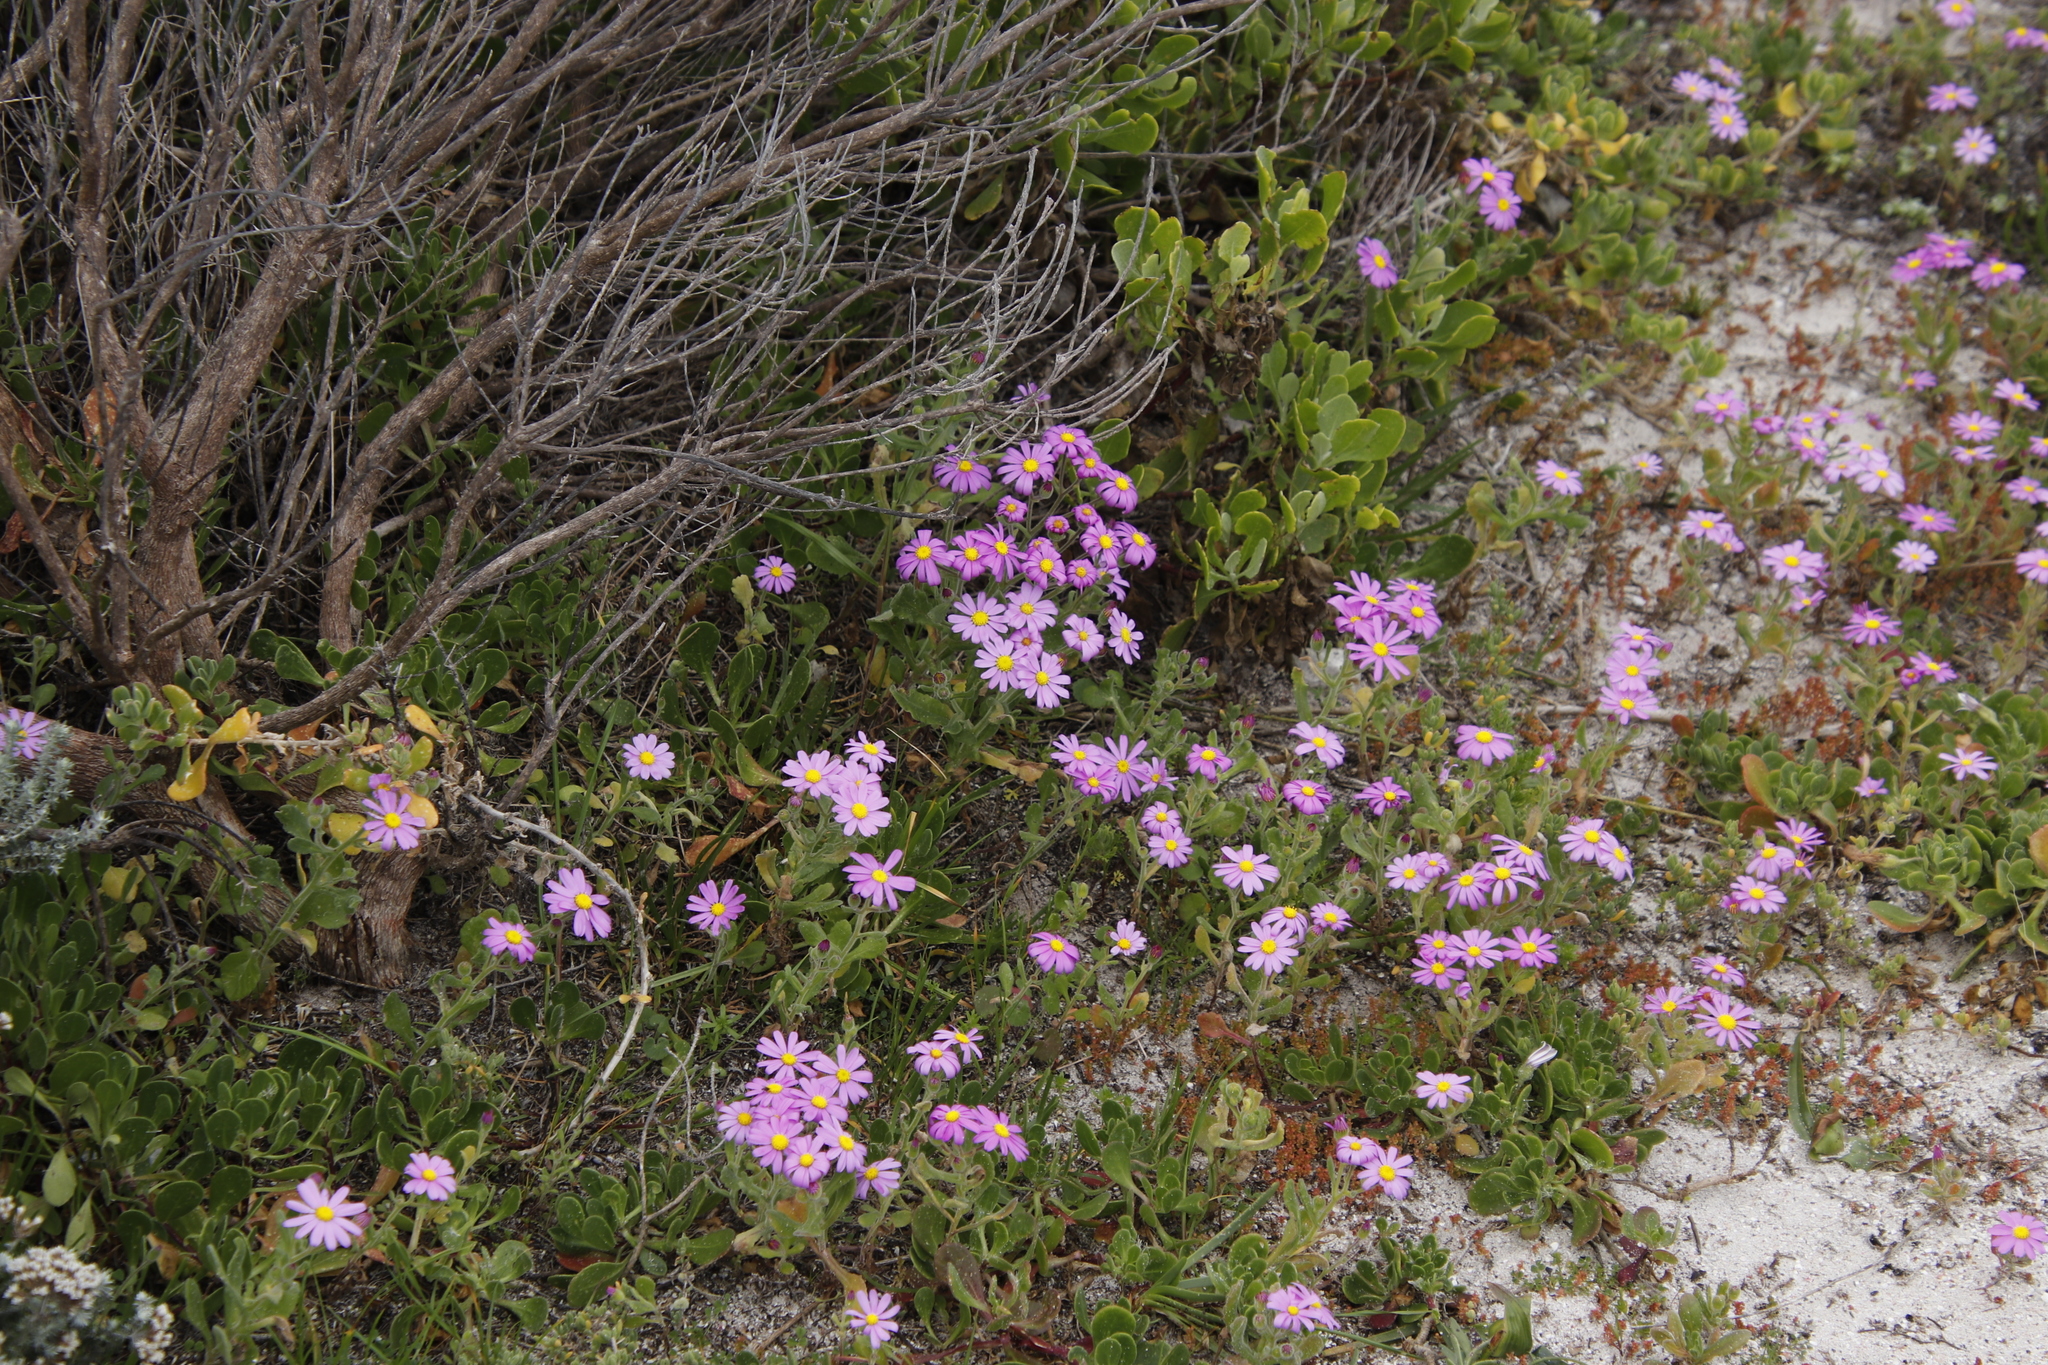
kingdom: Plantae
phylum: Tracheophyta
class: Magnoliopsida
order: Asterales
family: Asteraceae
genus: Senecio
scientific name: Senecio arenarius
